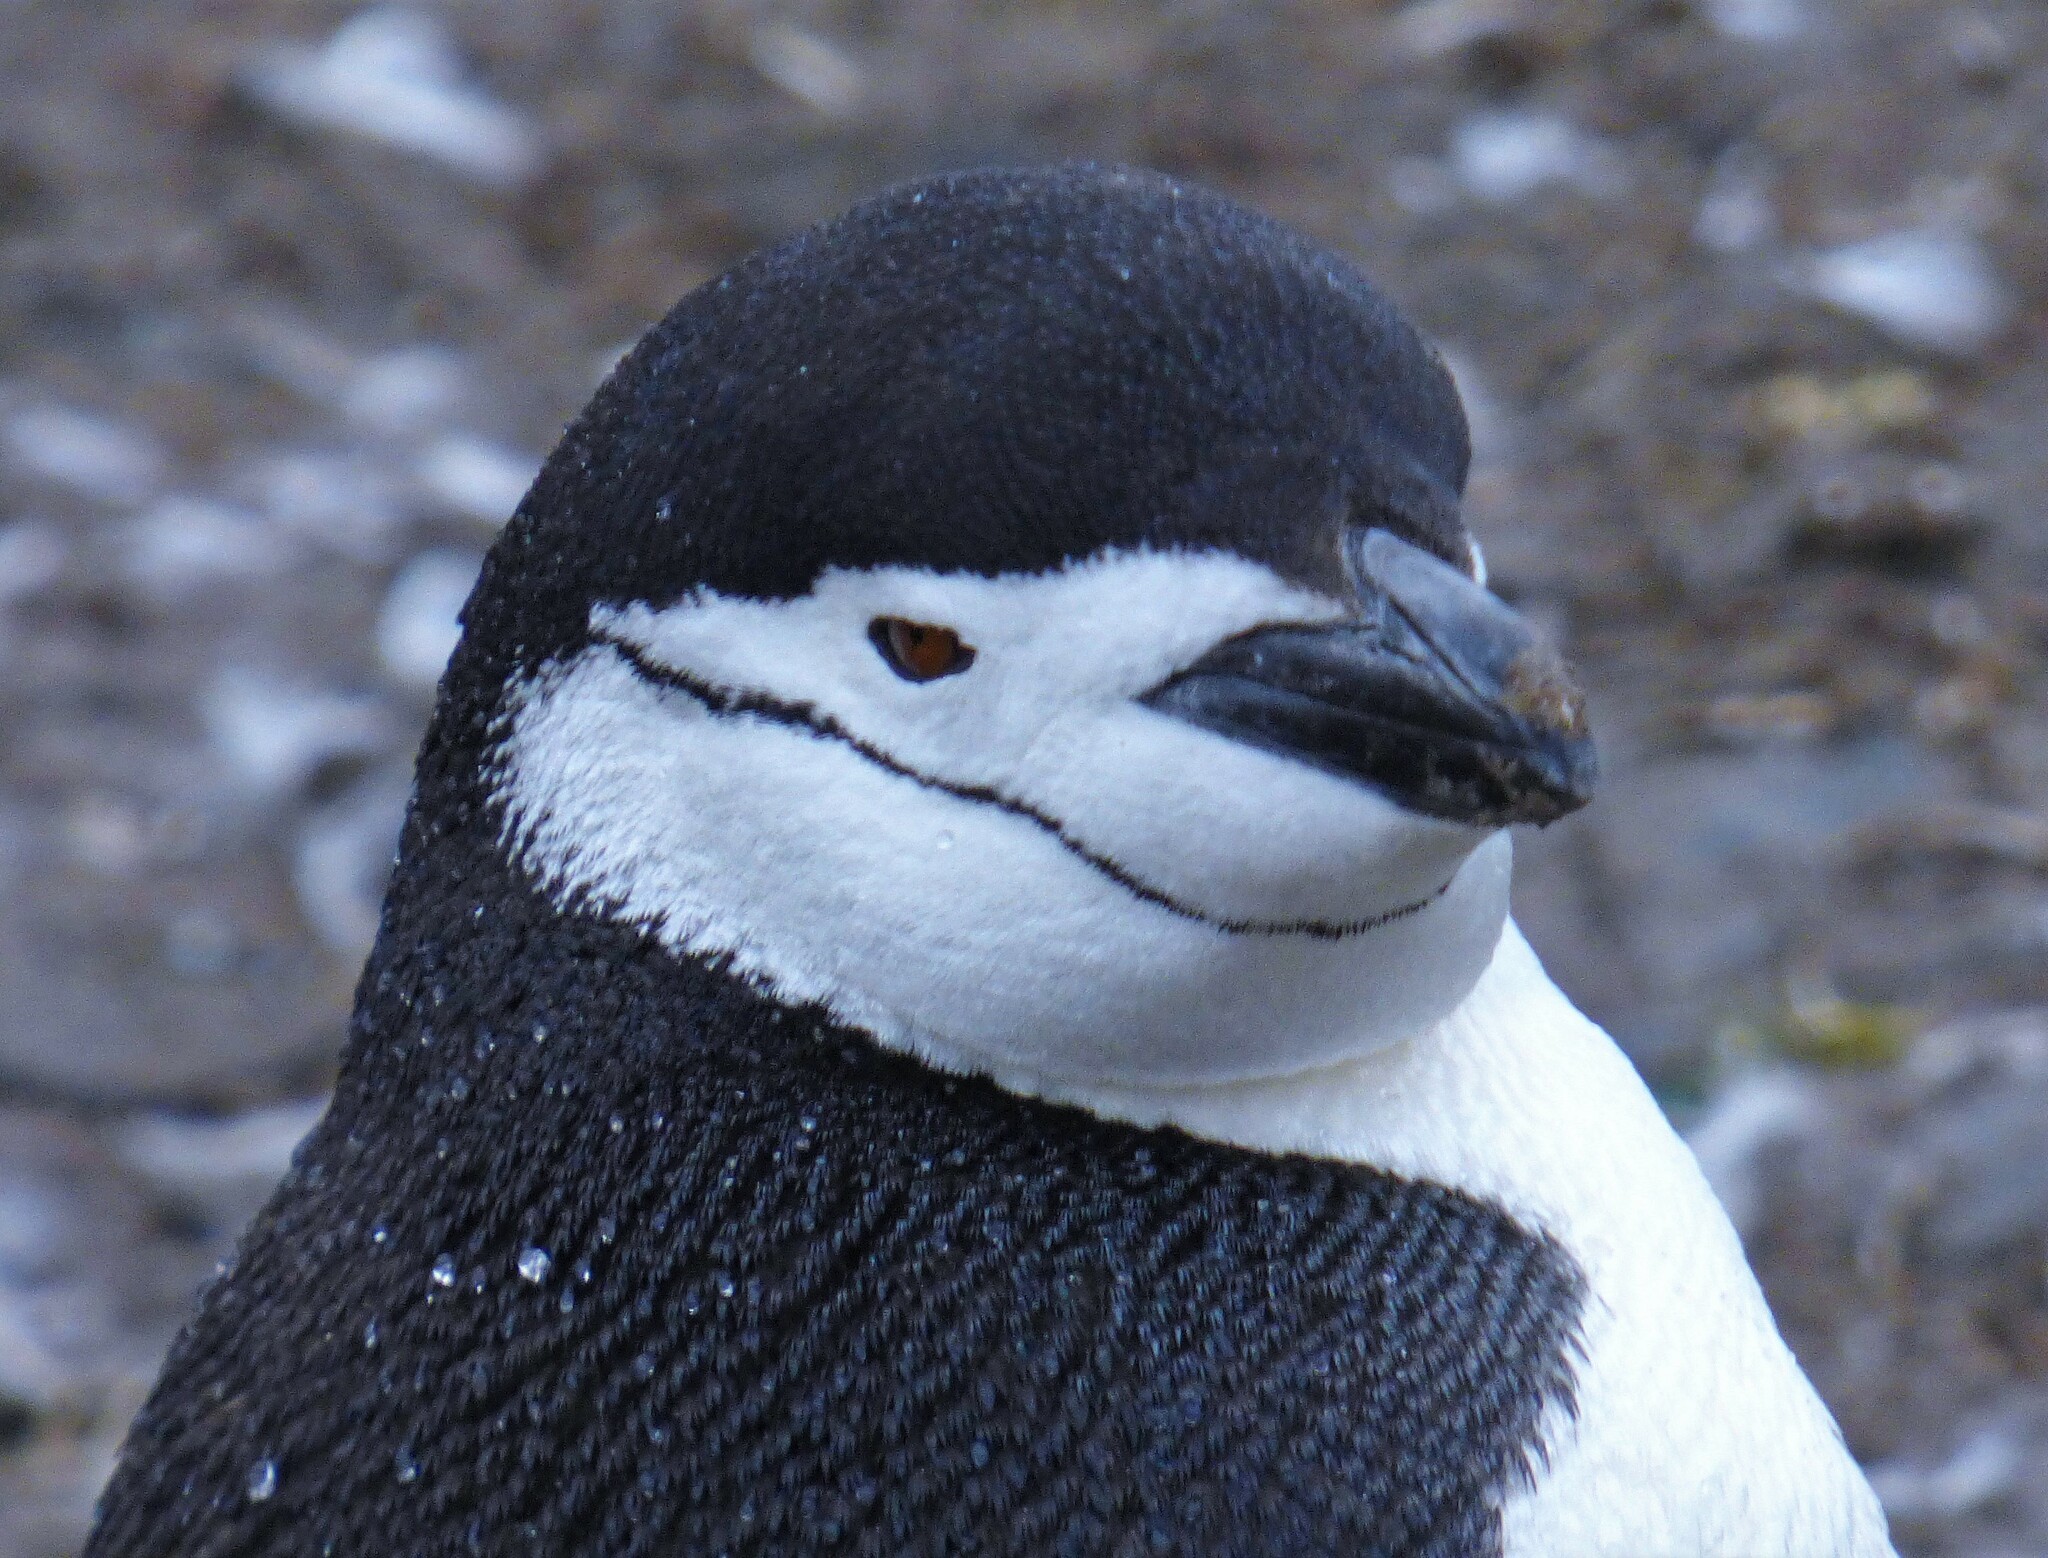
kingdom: Animalia
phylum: Chordata
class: Aves
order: Sphenisciformes
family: Spheniscidae
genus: Pygoscelis
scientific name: Pygoscelis antarcticus
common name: Chinstrap penguin
